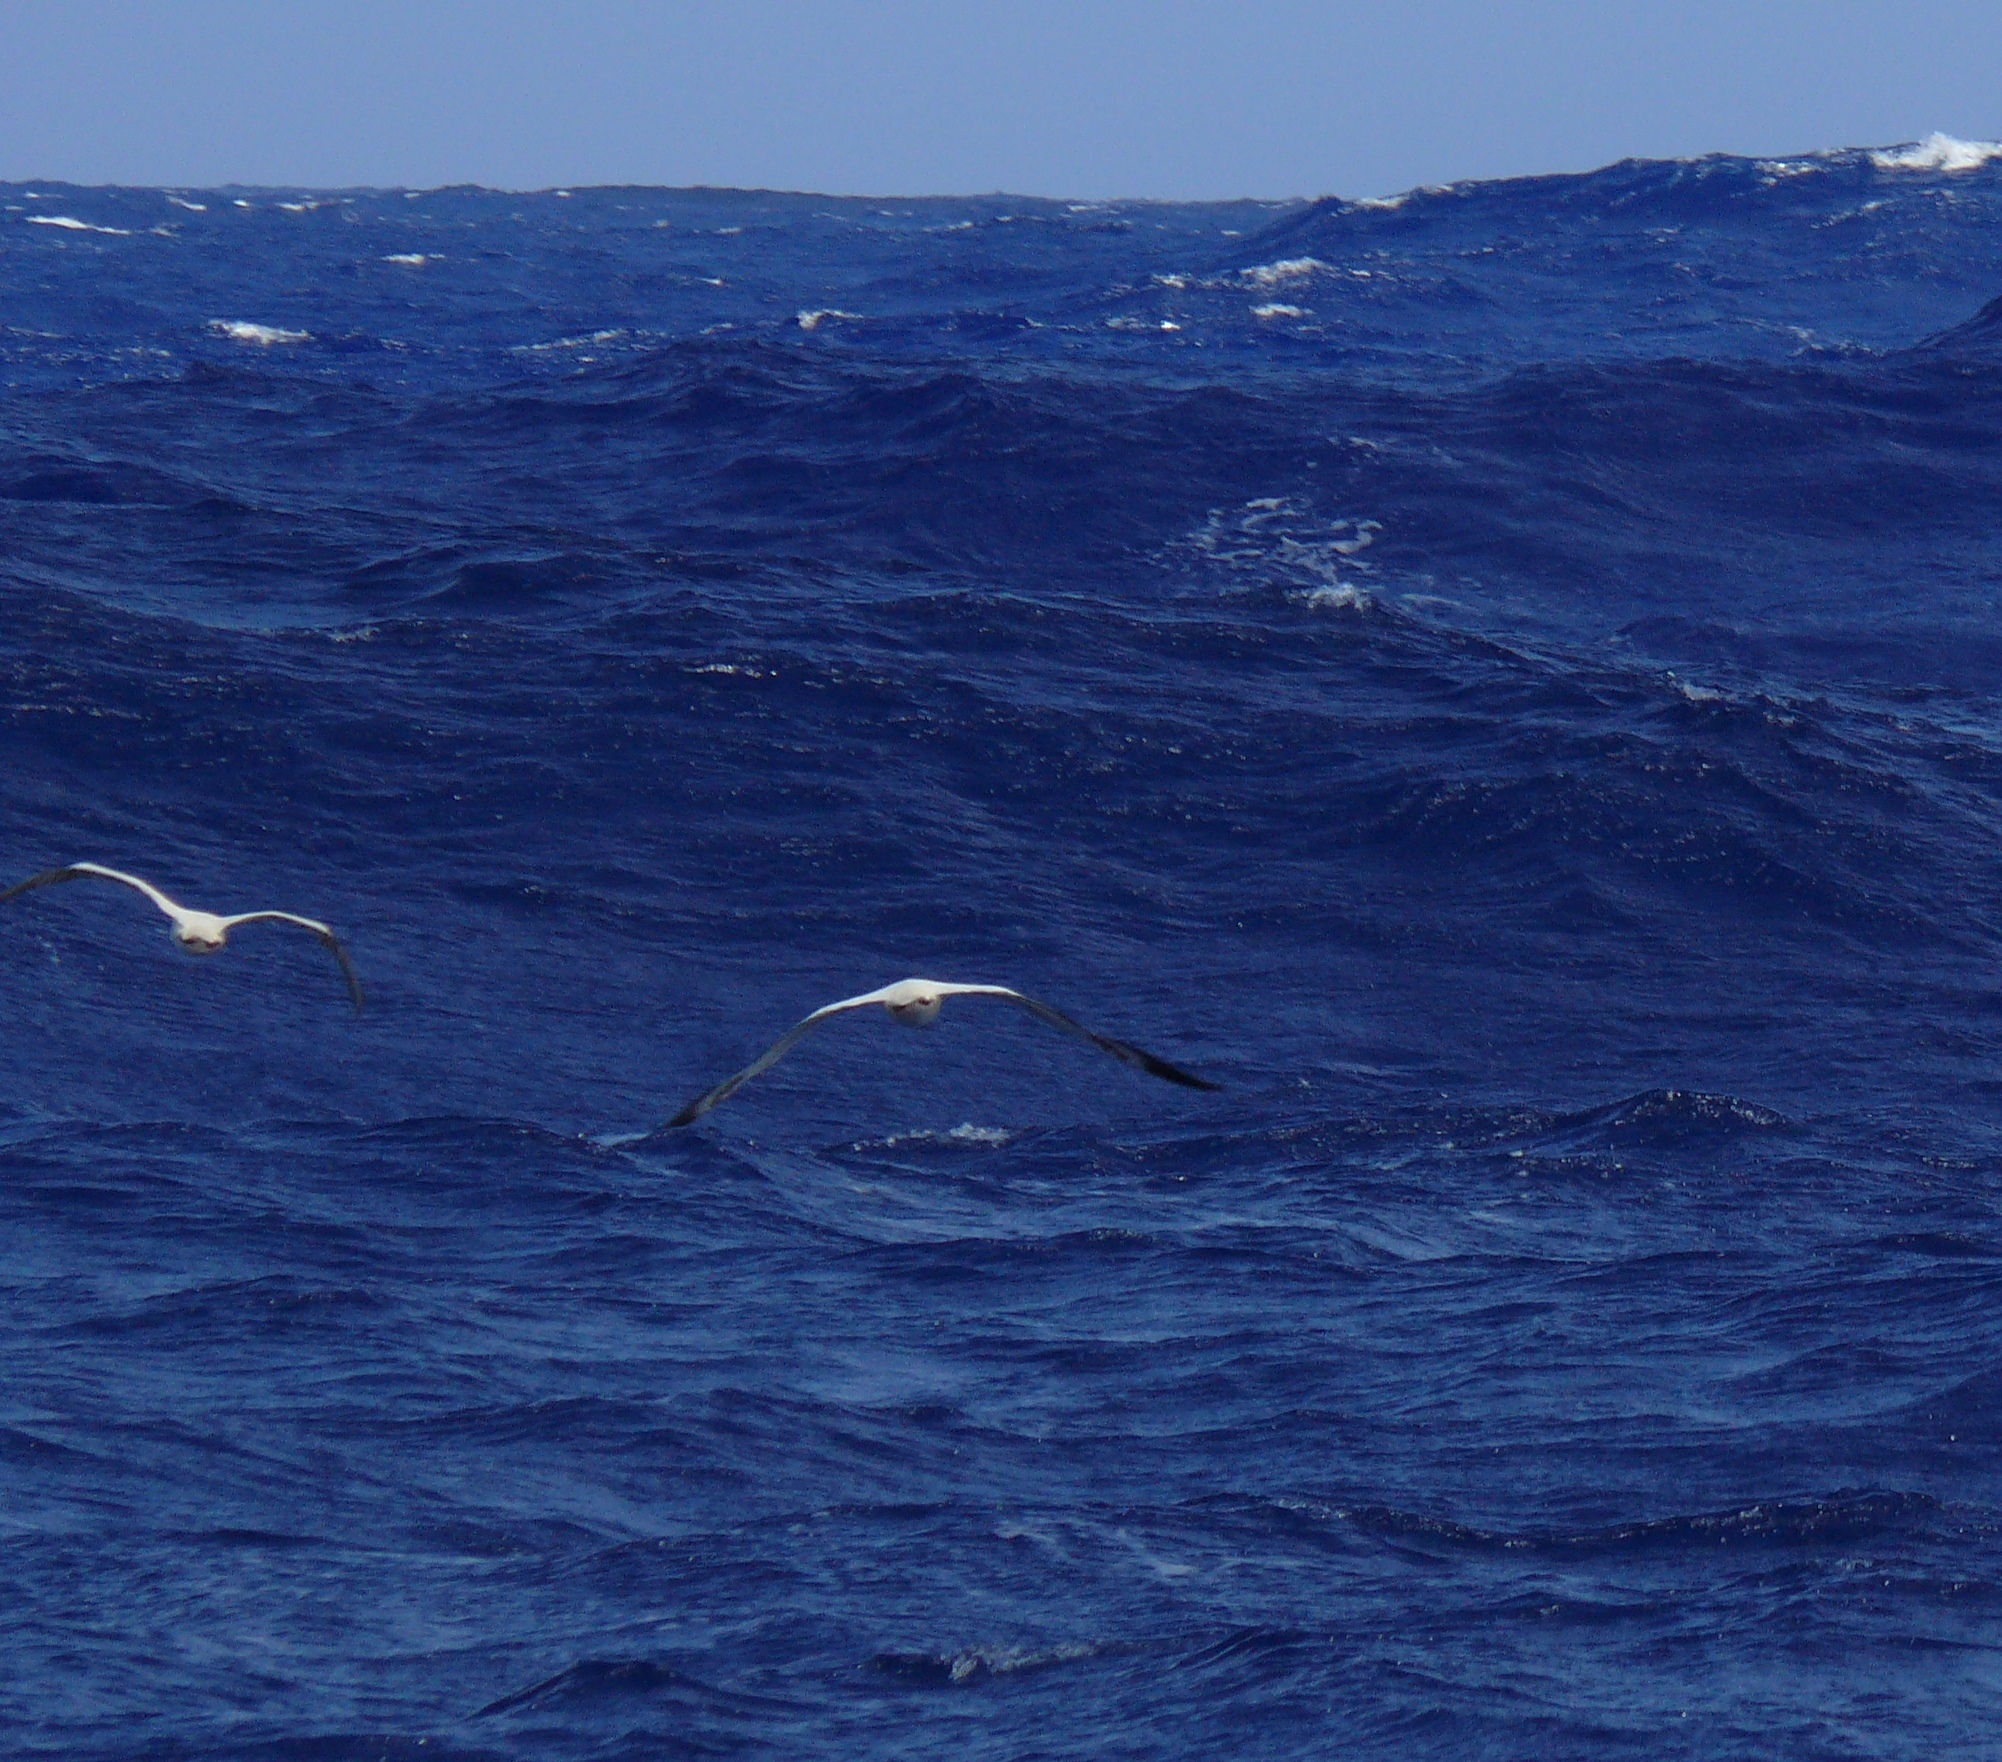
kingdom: Animalia
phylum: Chordata
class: Aves
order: Suliformes
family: Sulidae
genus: Sula
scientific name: Sula sula
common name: Red-footed booby
